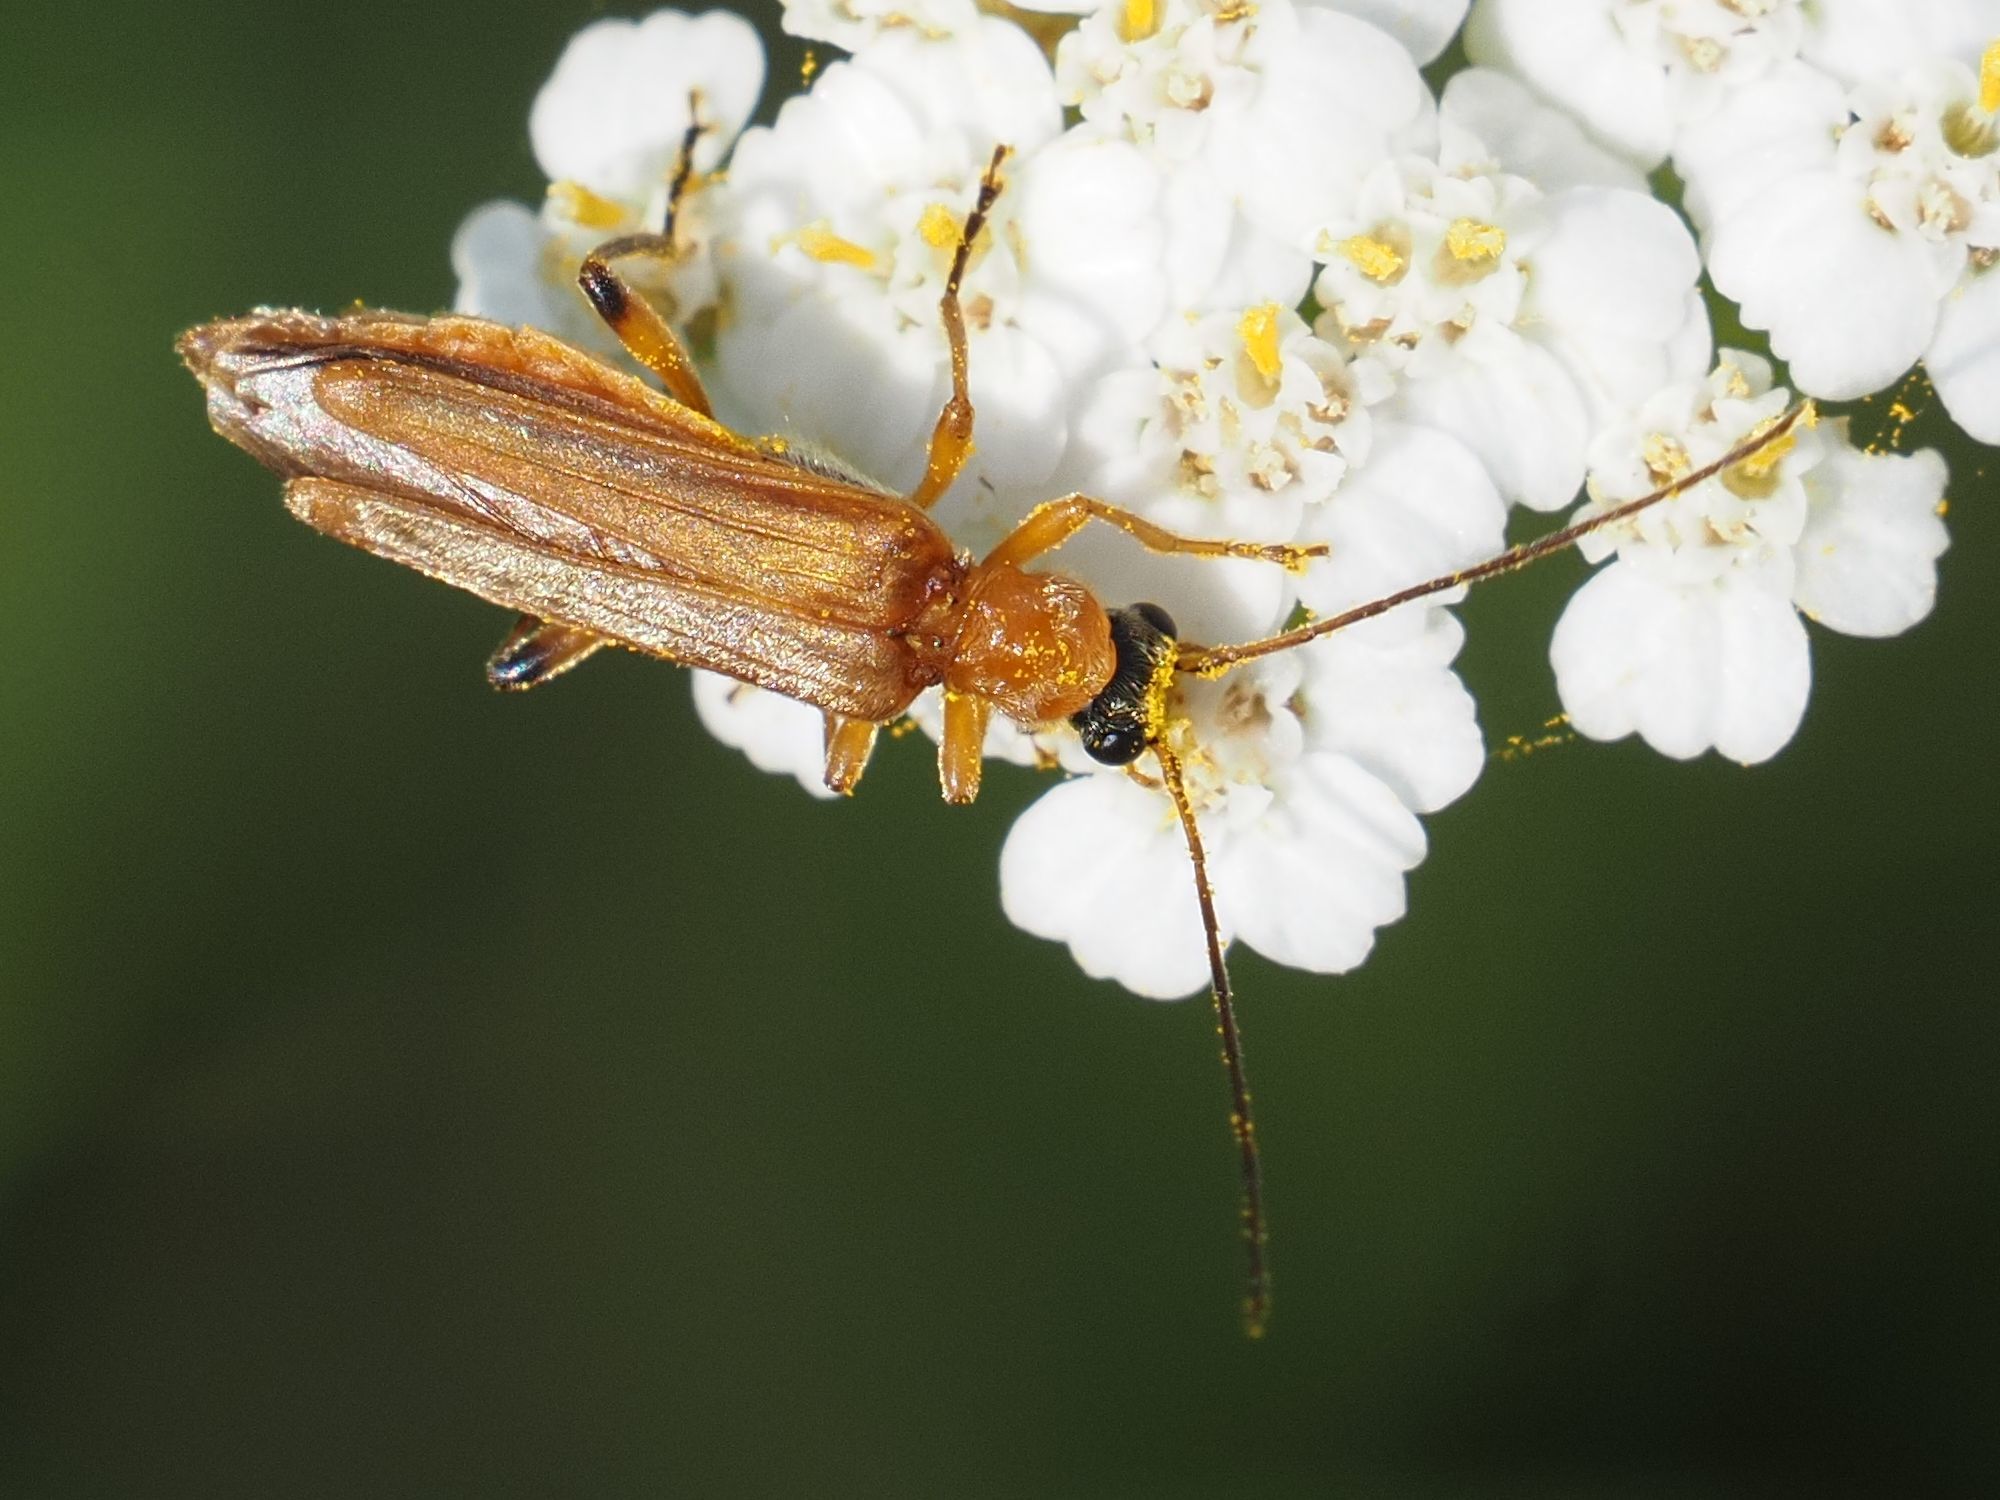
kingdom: Animalia
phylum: Arthropoda
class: Insecta
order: Coleoptera
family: Oedemeridae
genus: Oedemera
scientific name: Oedemera podagrariae
